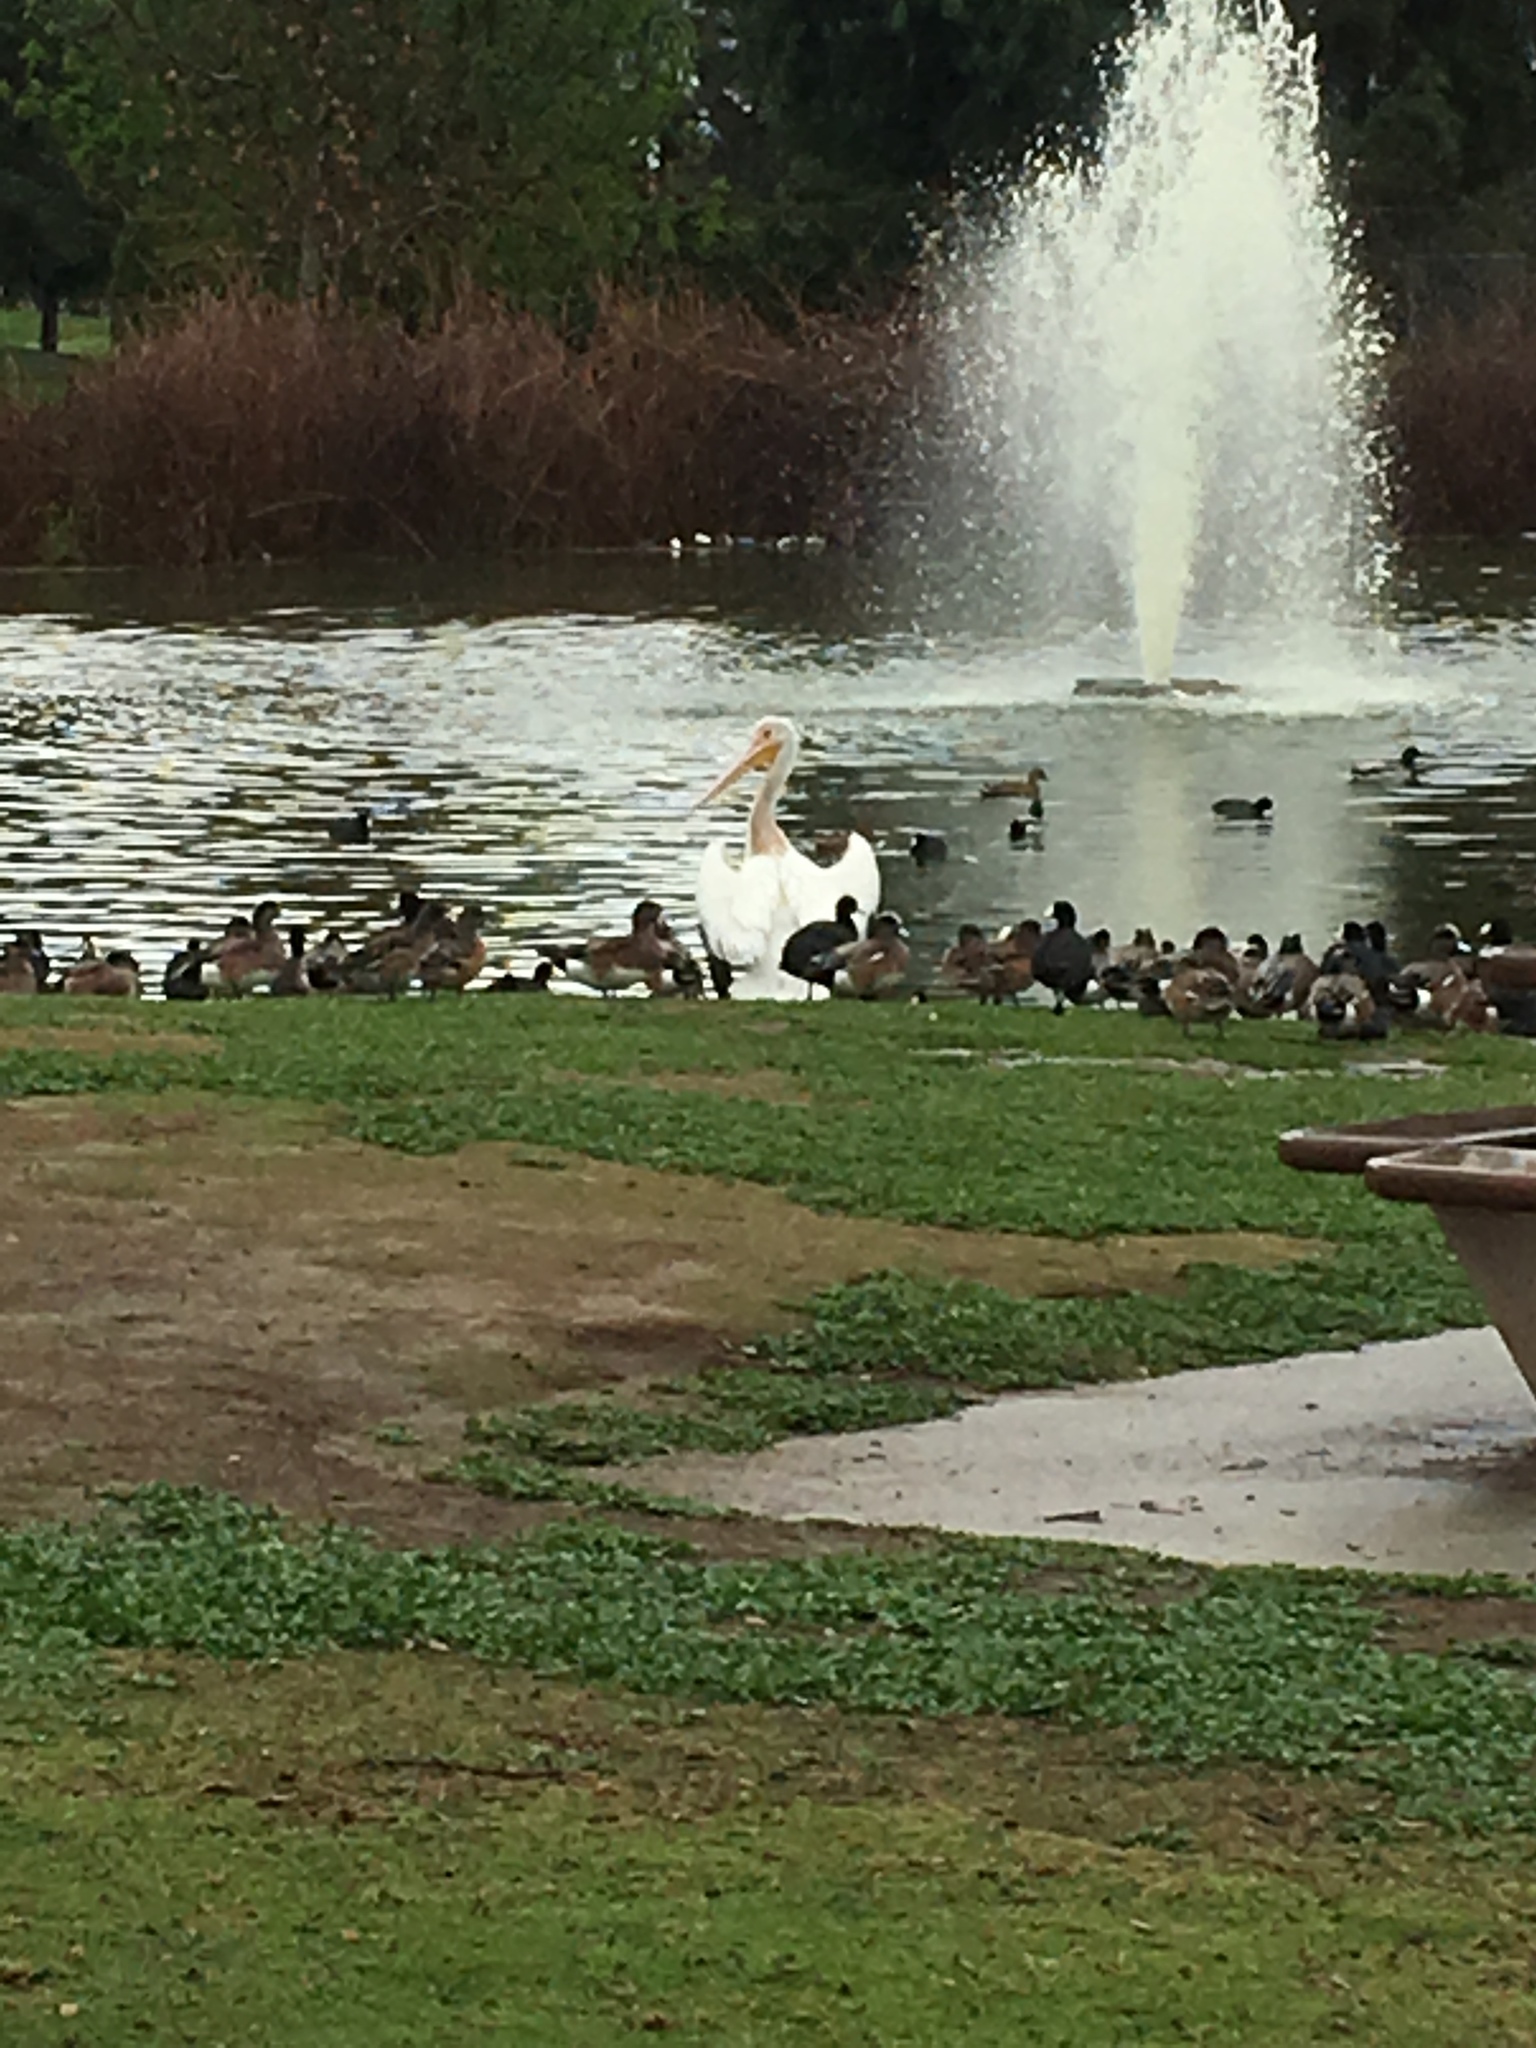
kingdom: Animalia
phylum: Chordata
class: Aves
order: Pelecaniformes
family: Pelecanidae
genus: Pelecanus
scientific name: Pelecanus erythrorhynchos
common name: American white pelican
